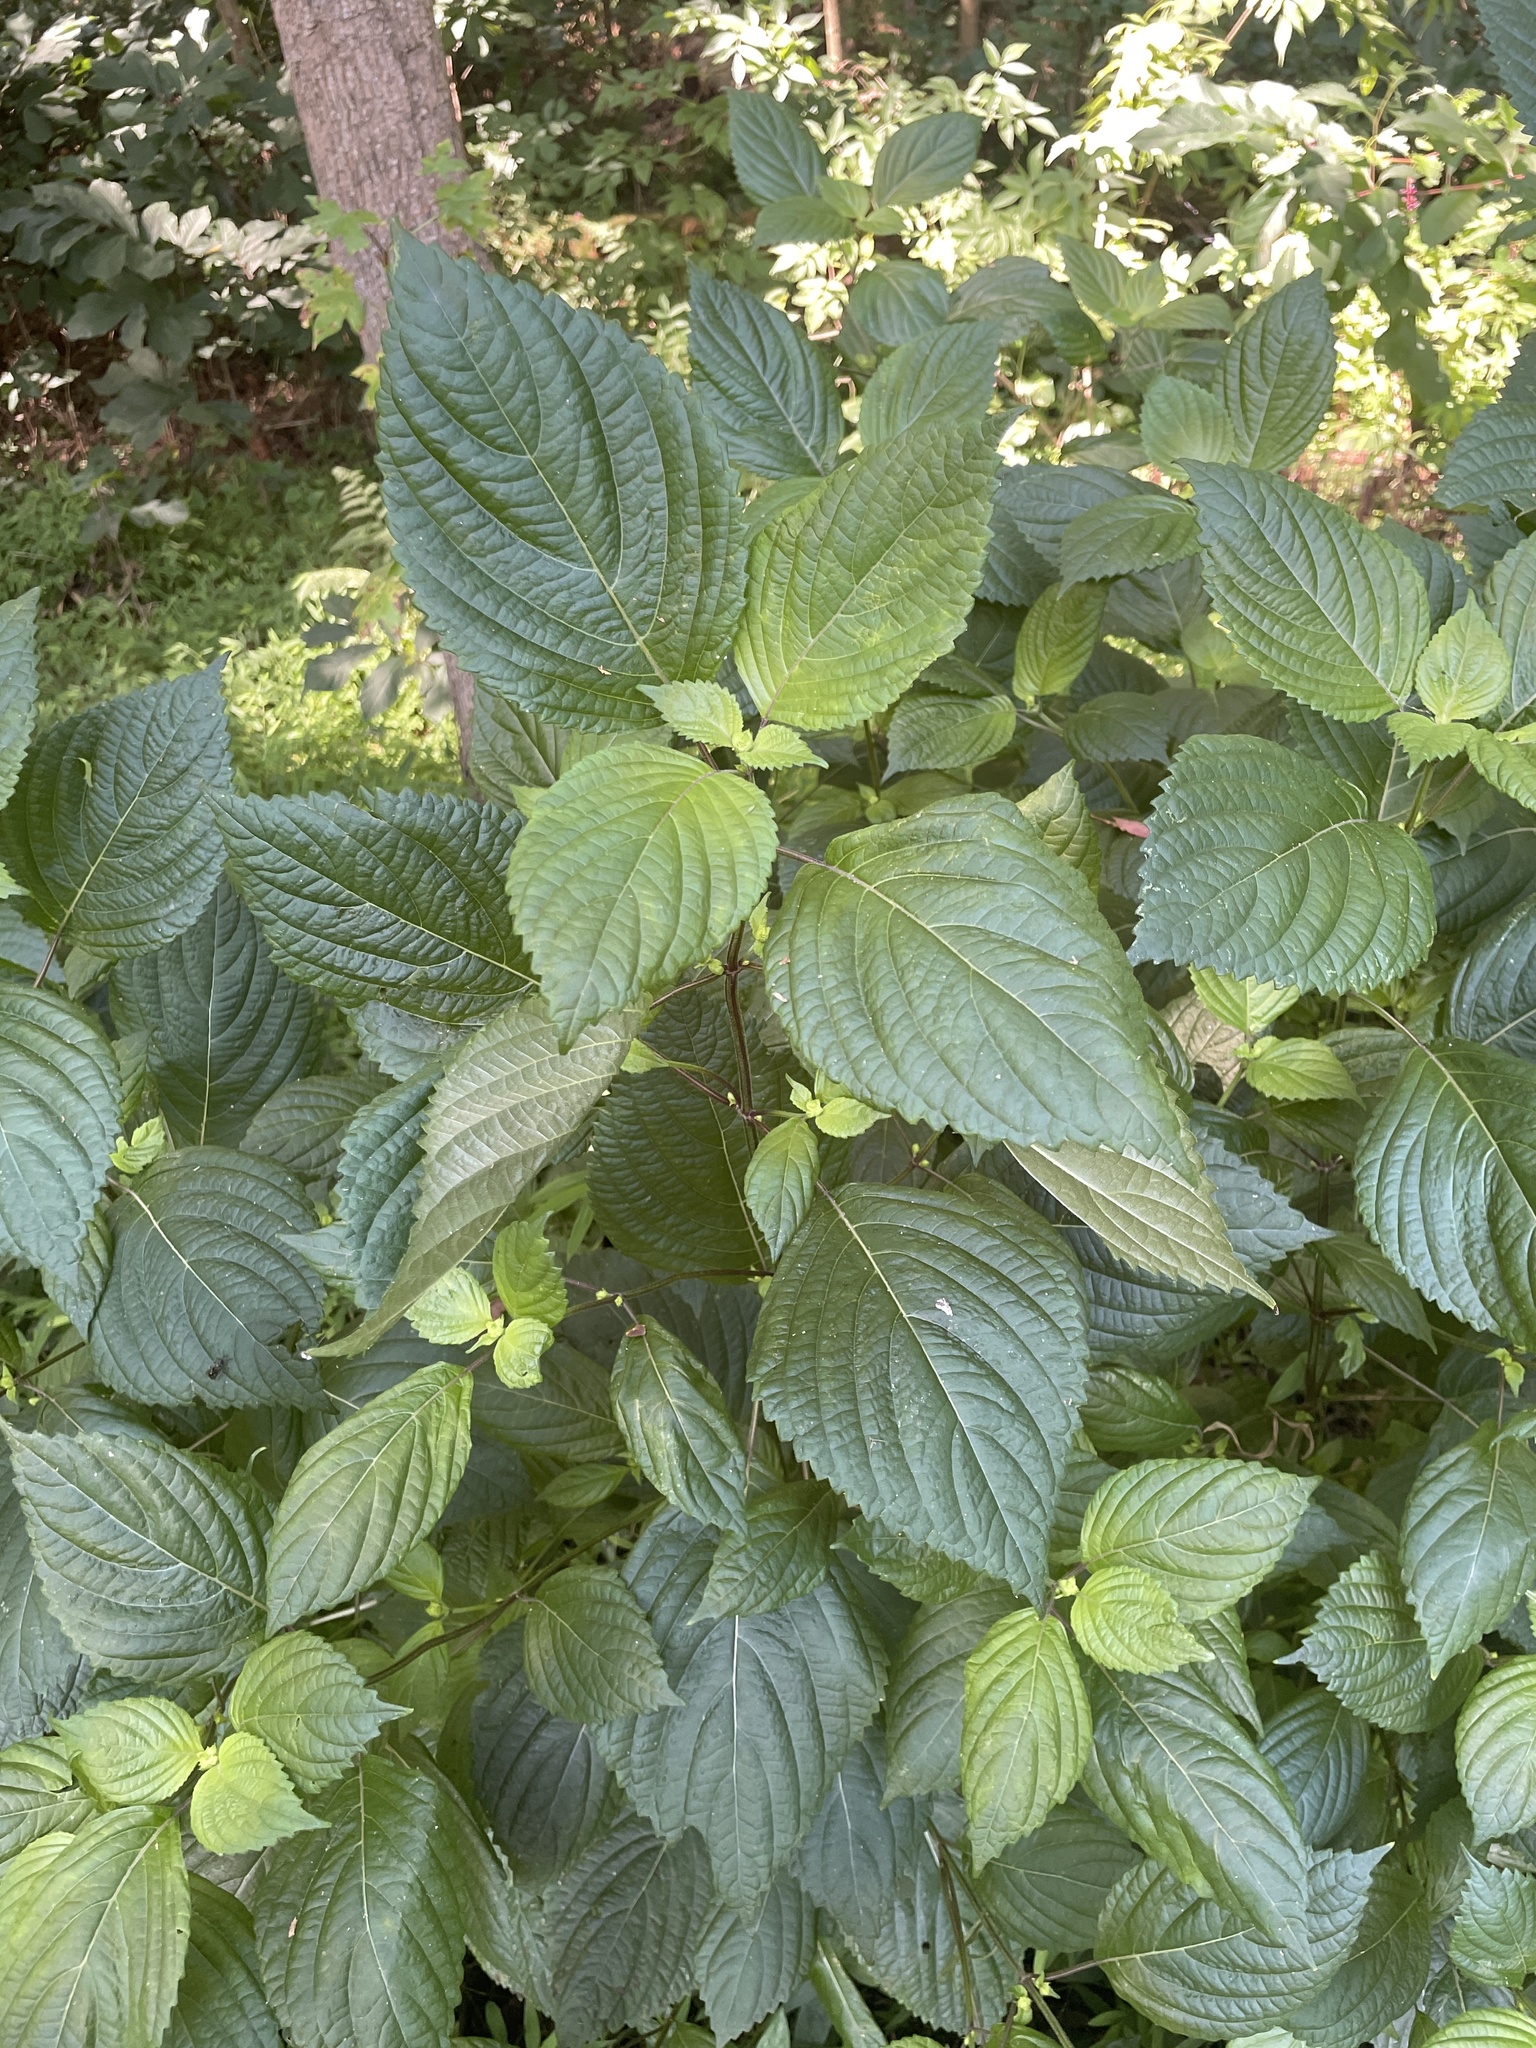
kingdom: Plantae
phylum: Tracheophyta
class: Magnoliopsida
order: Lamiales
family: Lamiaceae
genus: Perilla
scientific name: Perilla frutescens
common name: Perilla
